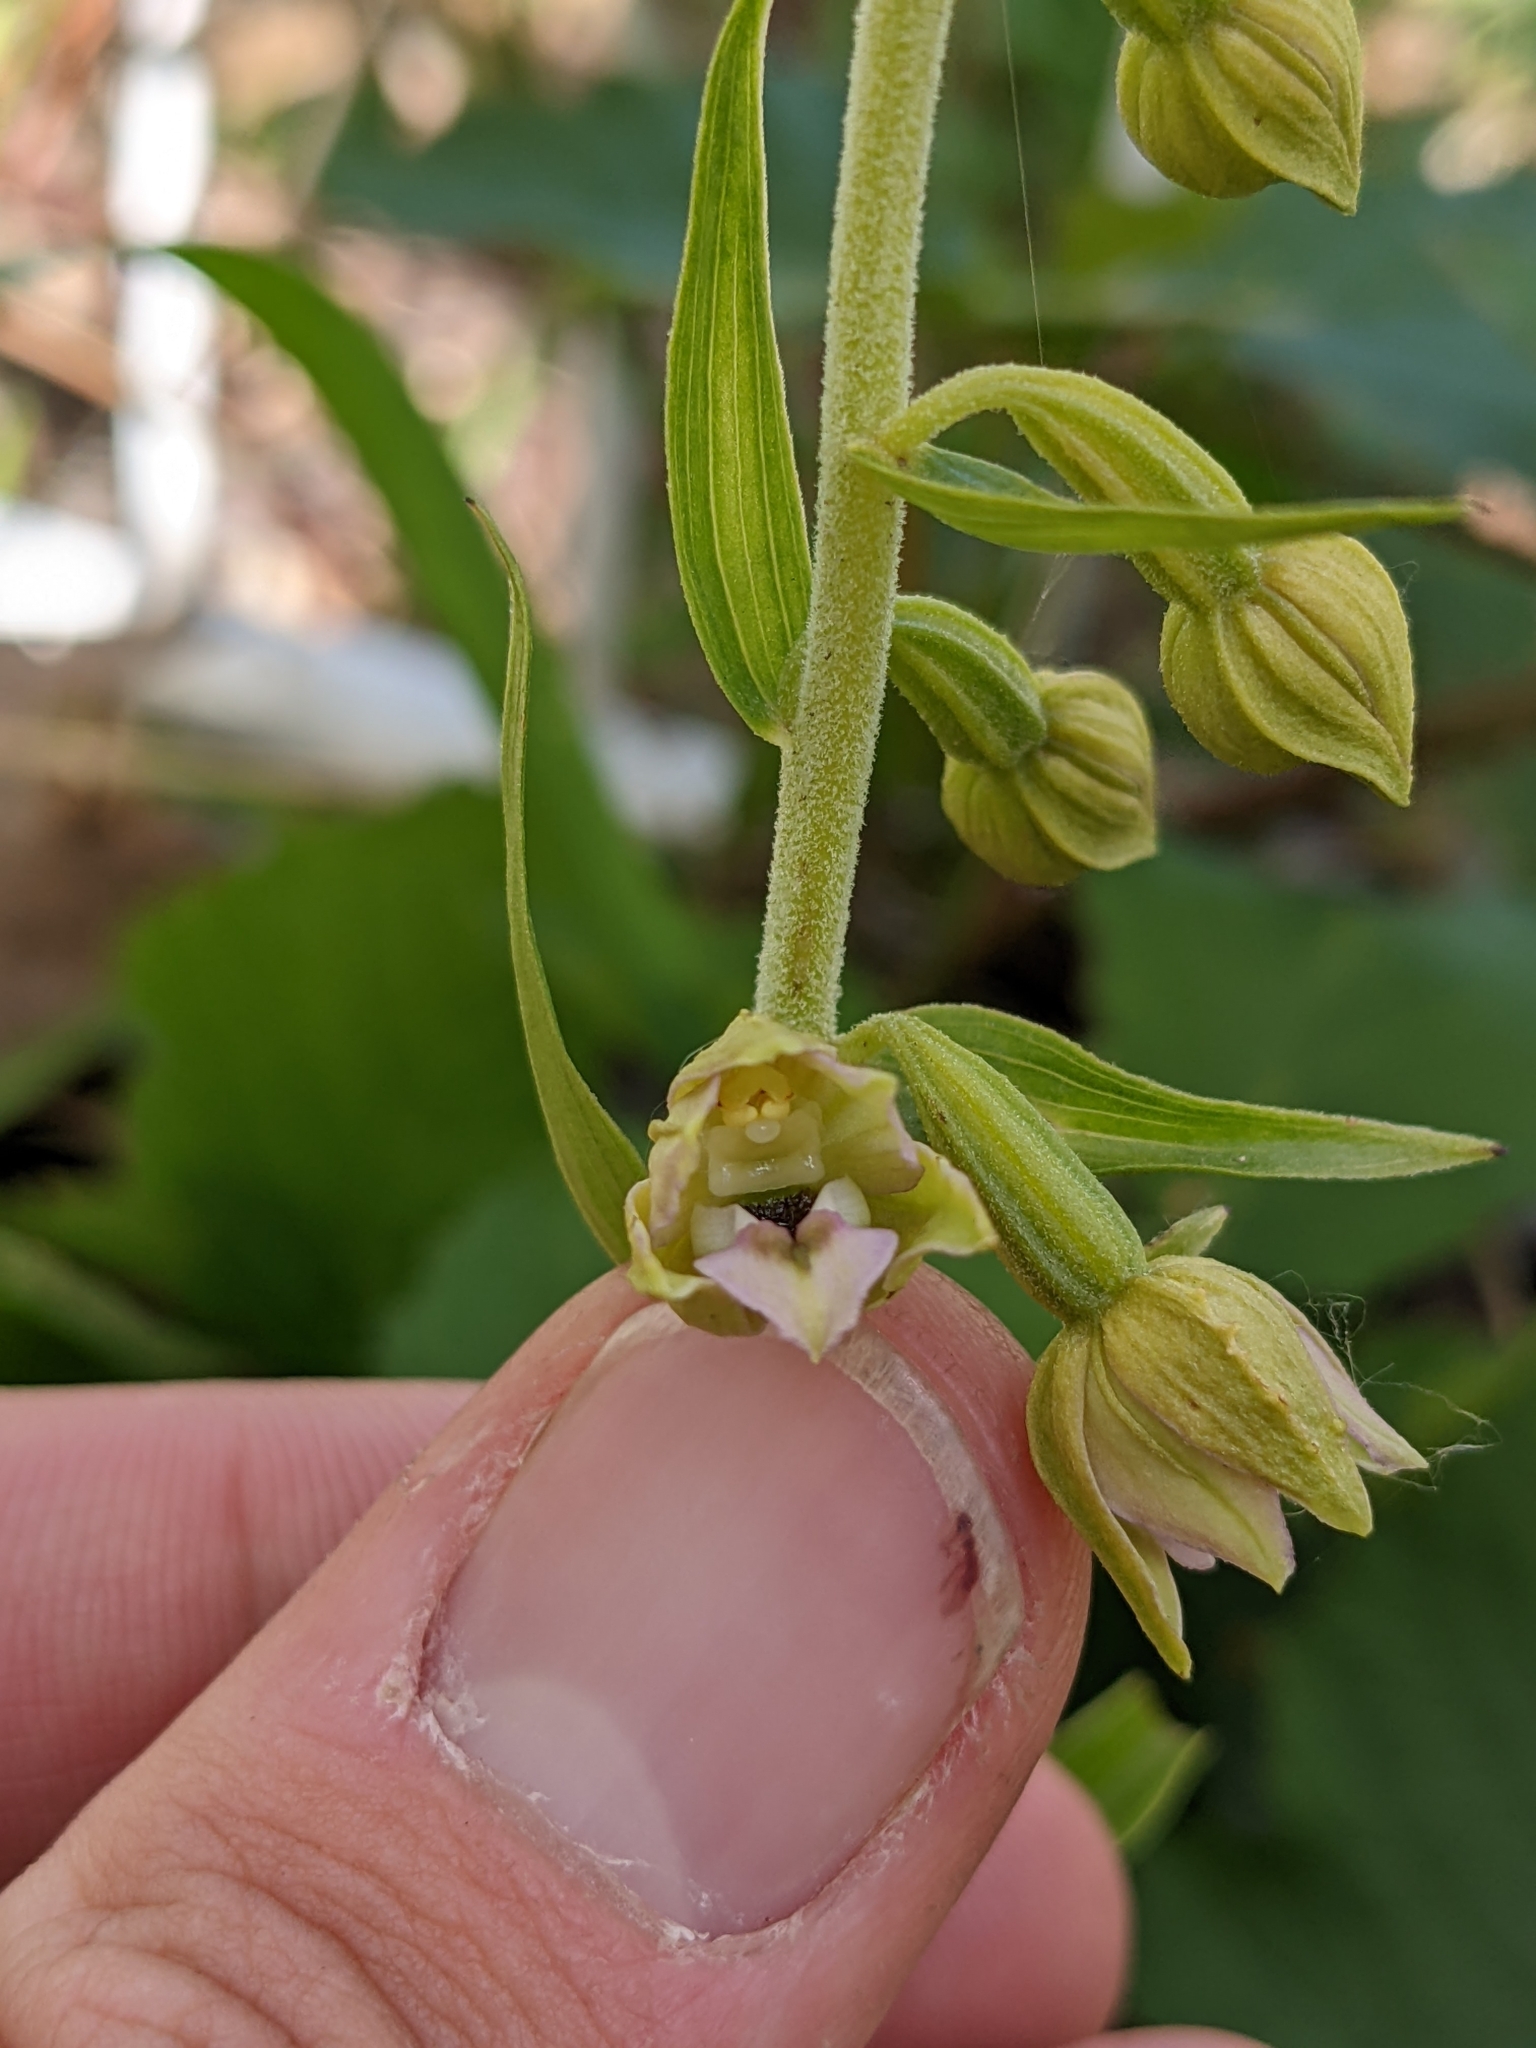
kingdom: Plantae
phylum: Tracheophyta
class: Liliopsida
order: Asparagales
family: Orchidaceae
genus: Epipactis
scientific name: Epipactis helleborine
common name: Broad-leaved helleborine
